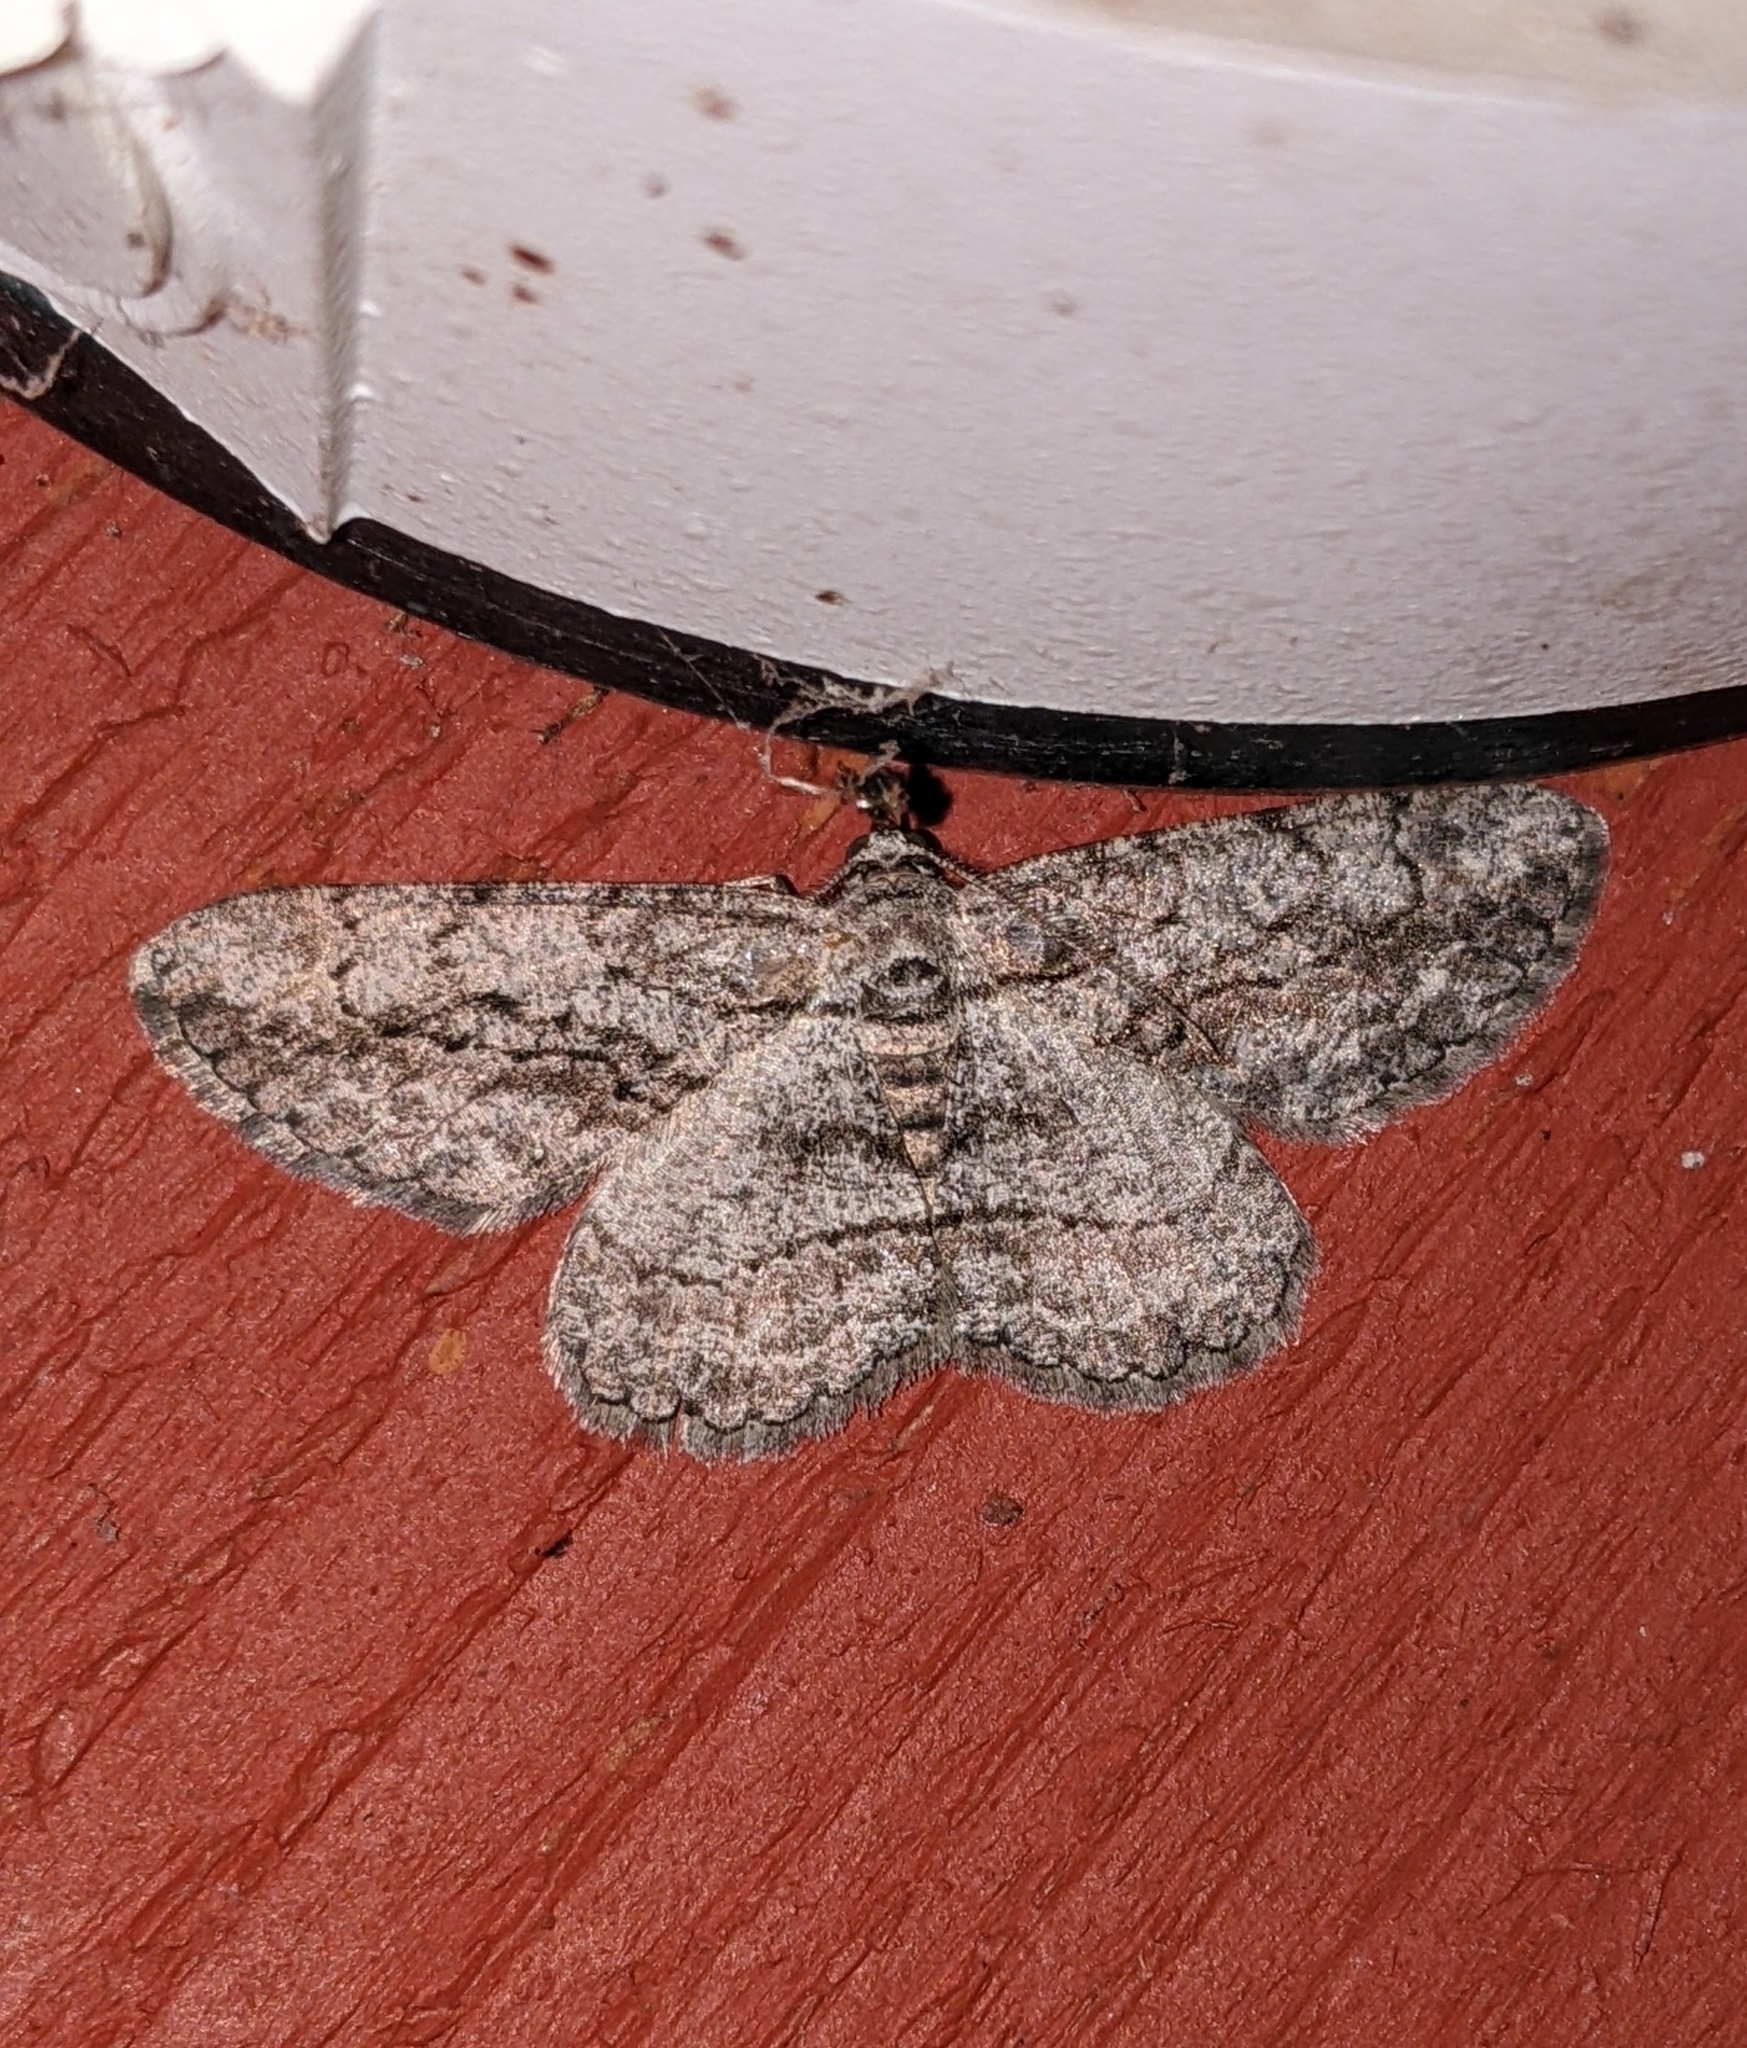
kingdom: Animalia
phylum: Arthropoda
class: Insecta
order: Lepidoptera
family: Geometridae
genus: Anavitrinella
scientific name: Anavitrinella pampinaria
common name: Common gray
